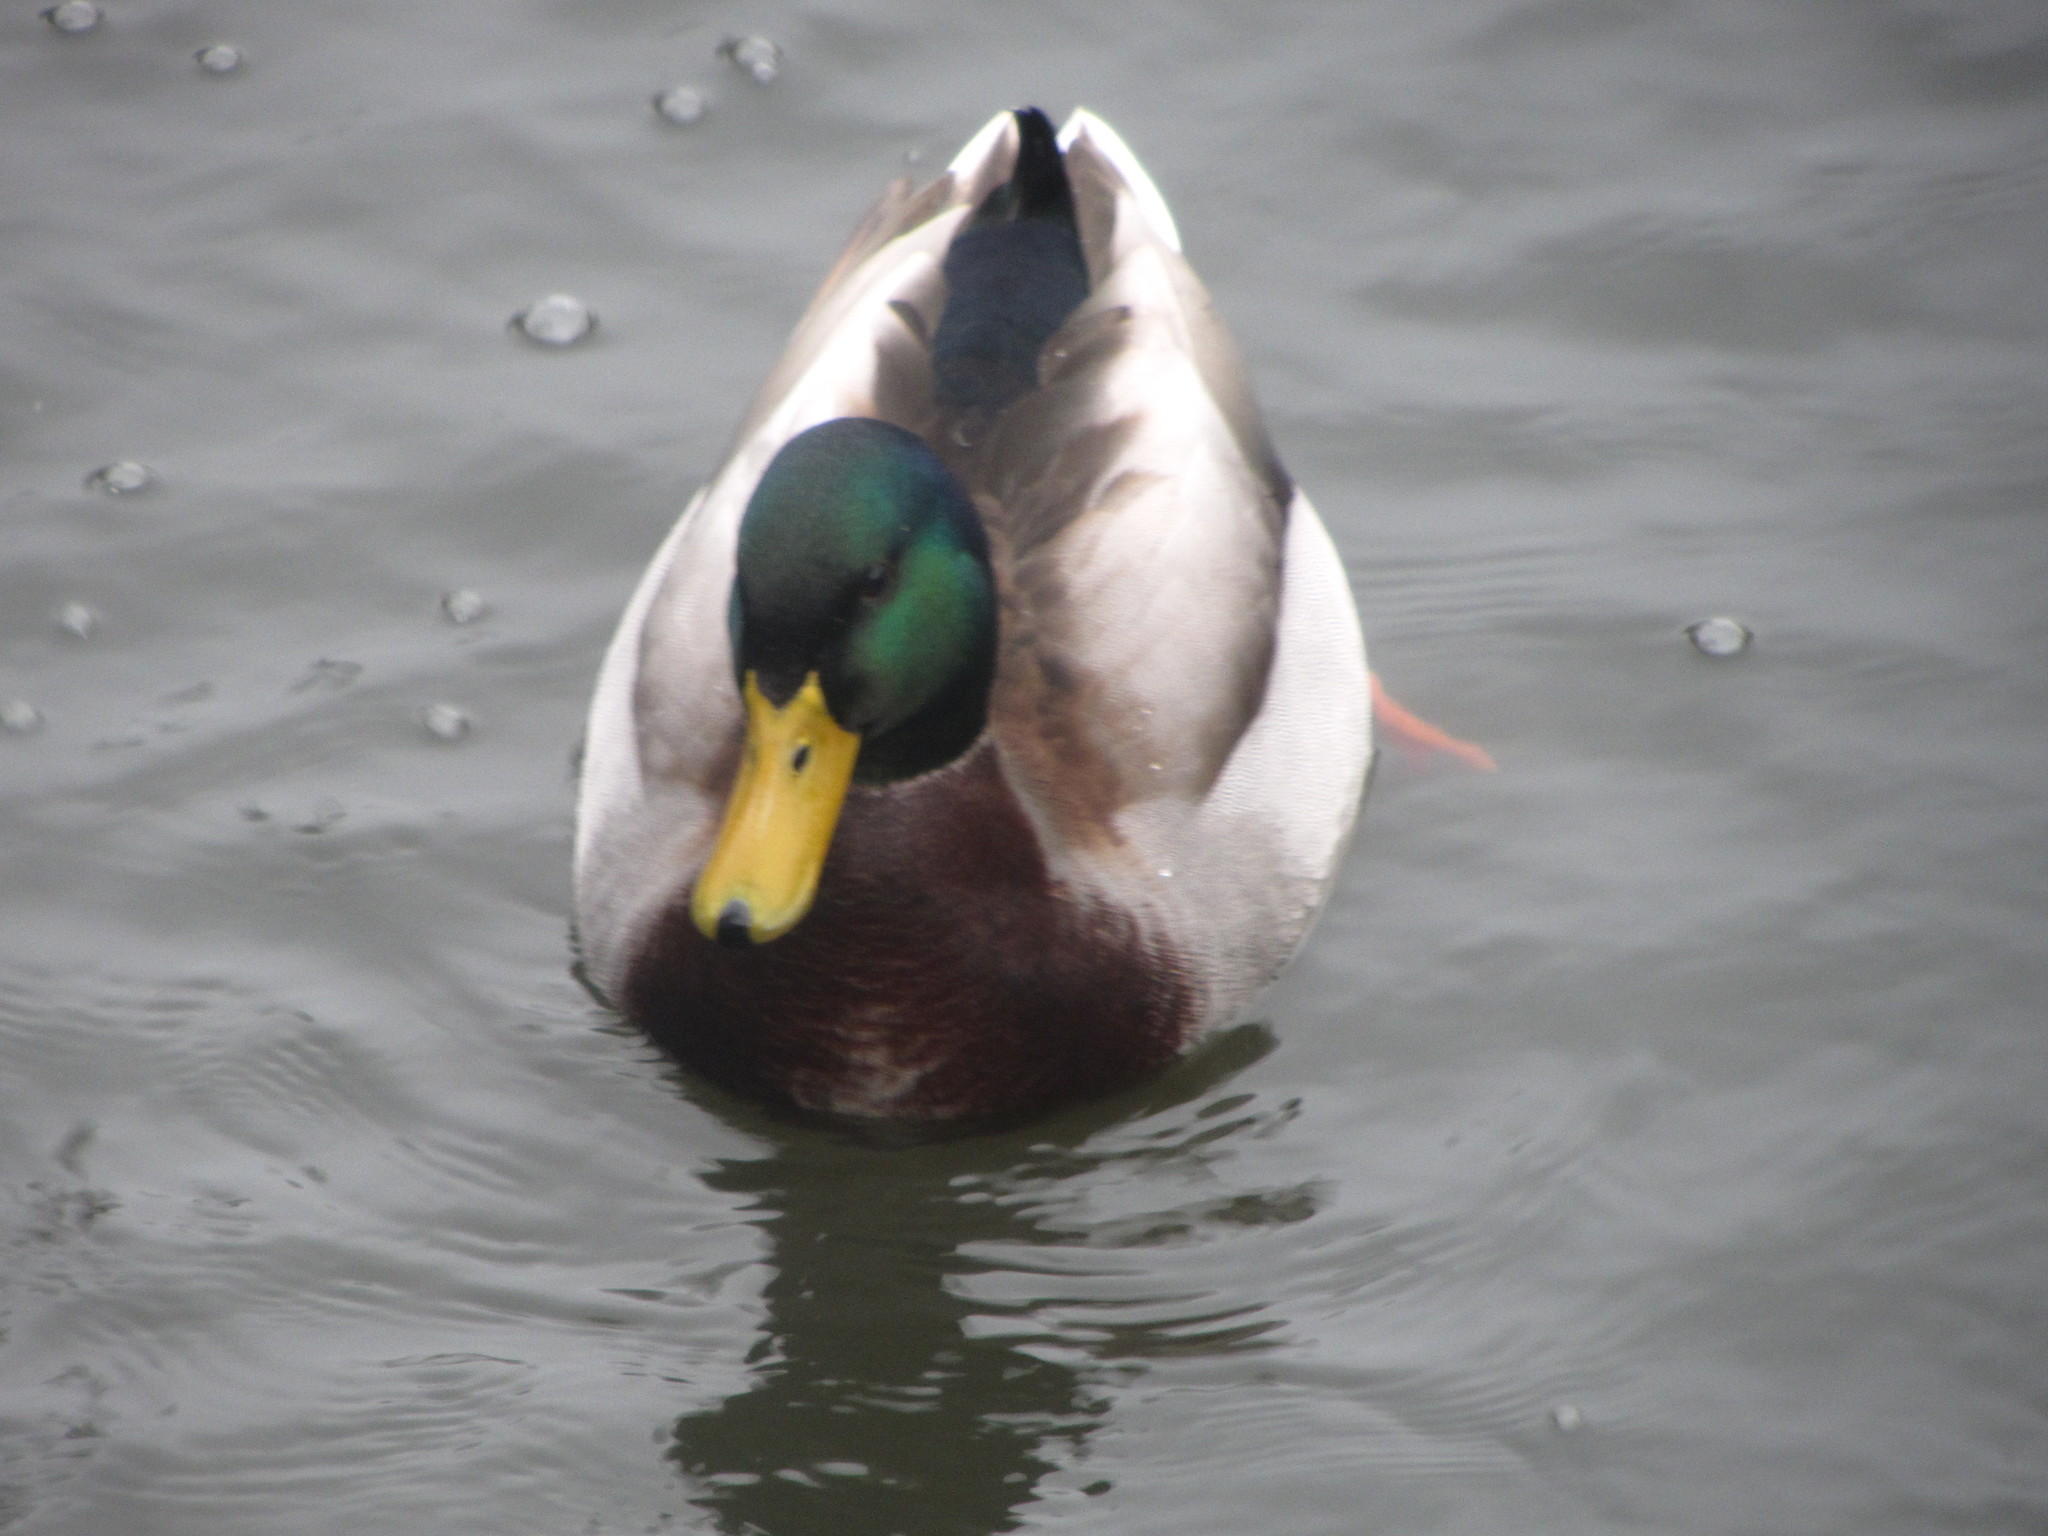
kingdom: Animalia
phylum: Chordata
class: Aves
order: Anseriformes
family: Anatidae
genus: Anas
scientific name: Anas platyrhynchos
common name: Mallard
